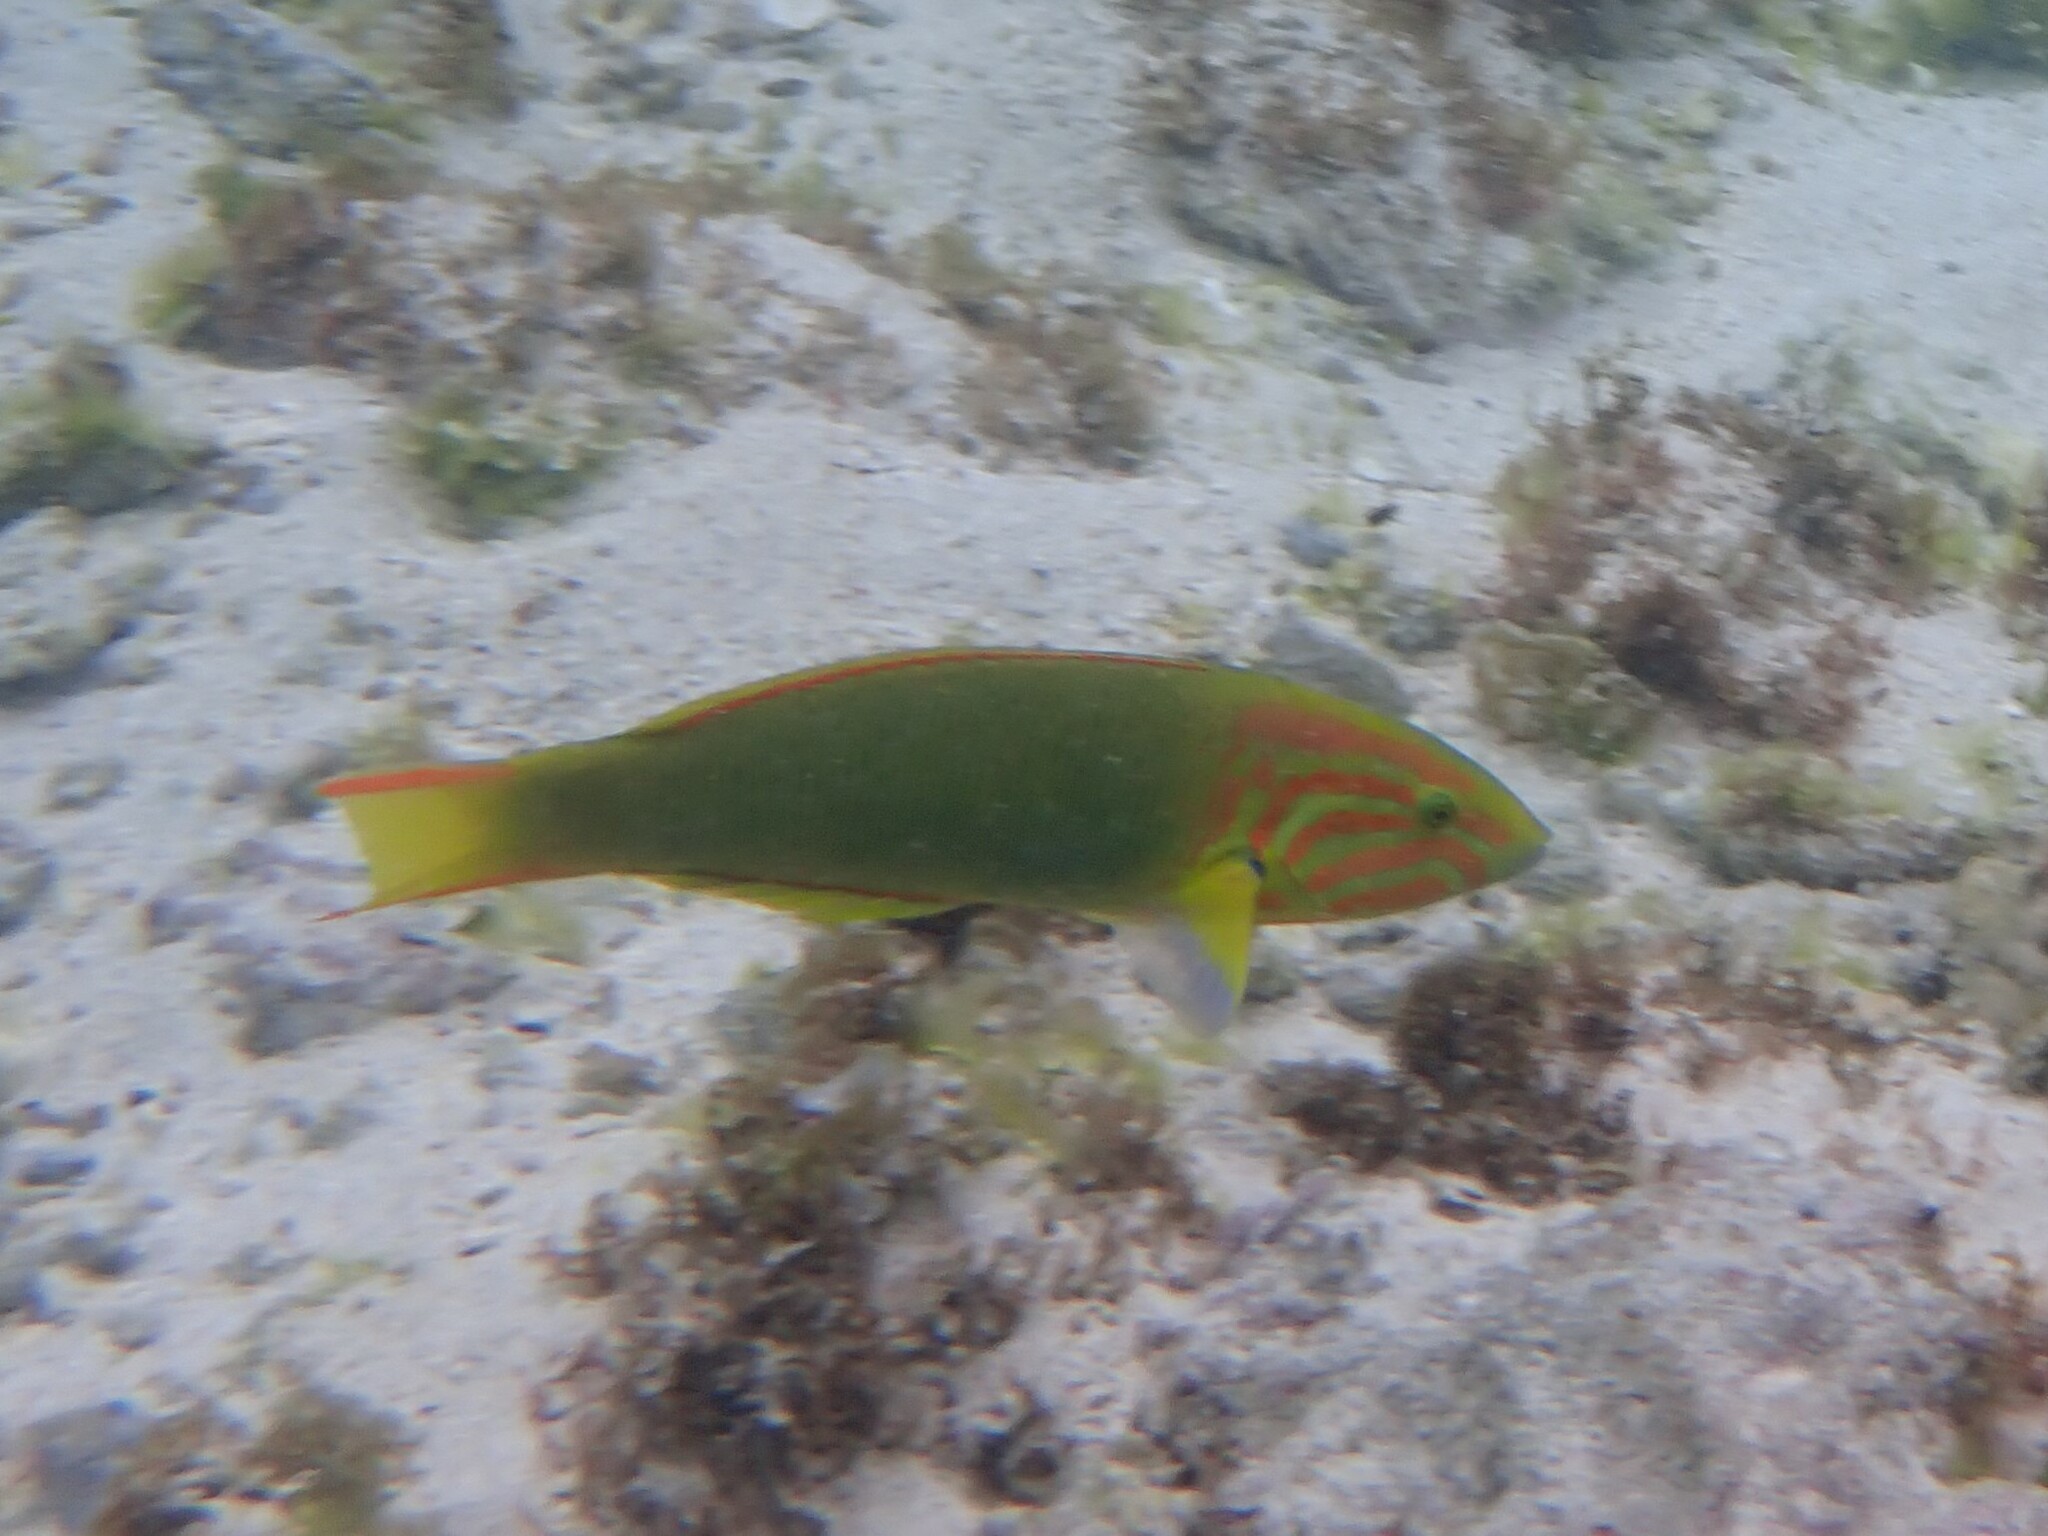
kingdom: Animalia
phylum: Chordata
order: Perciformes
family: Labridae
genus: Thalassoma
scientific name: Thalassoma lutescens
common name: Green moon wrasse
